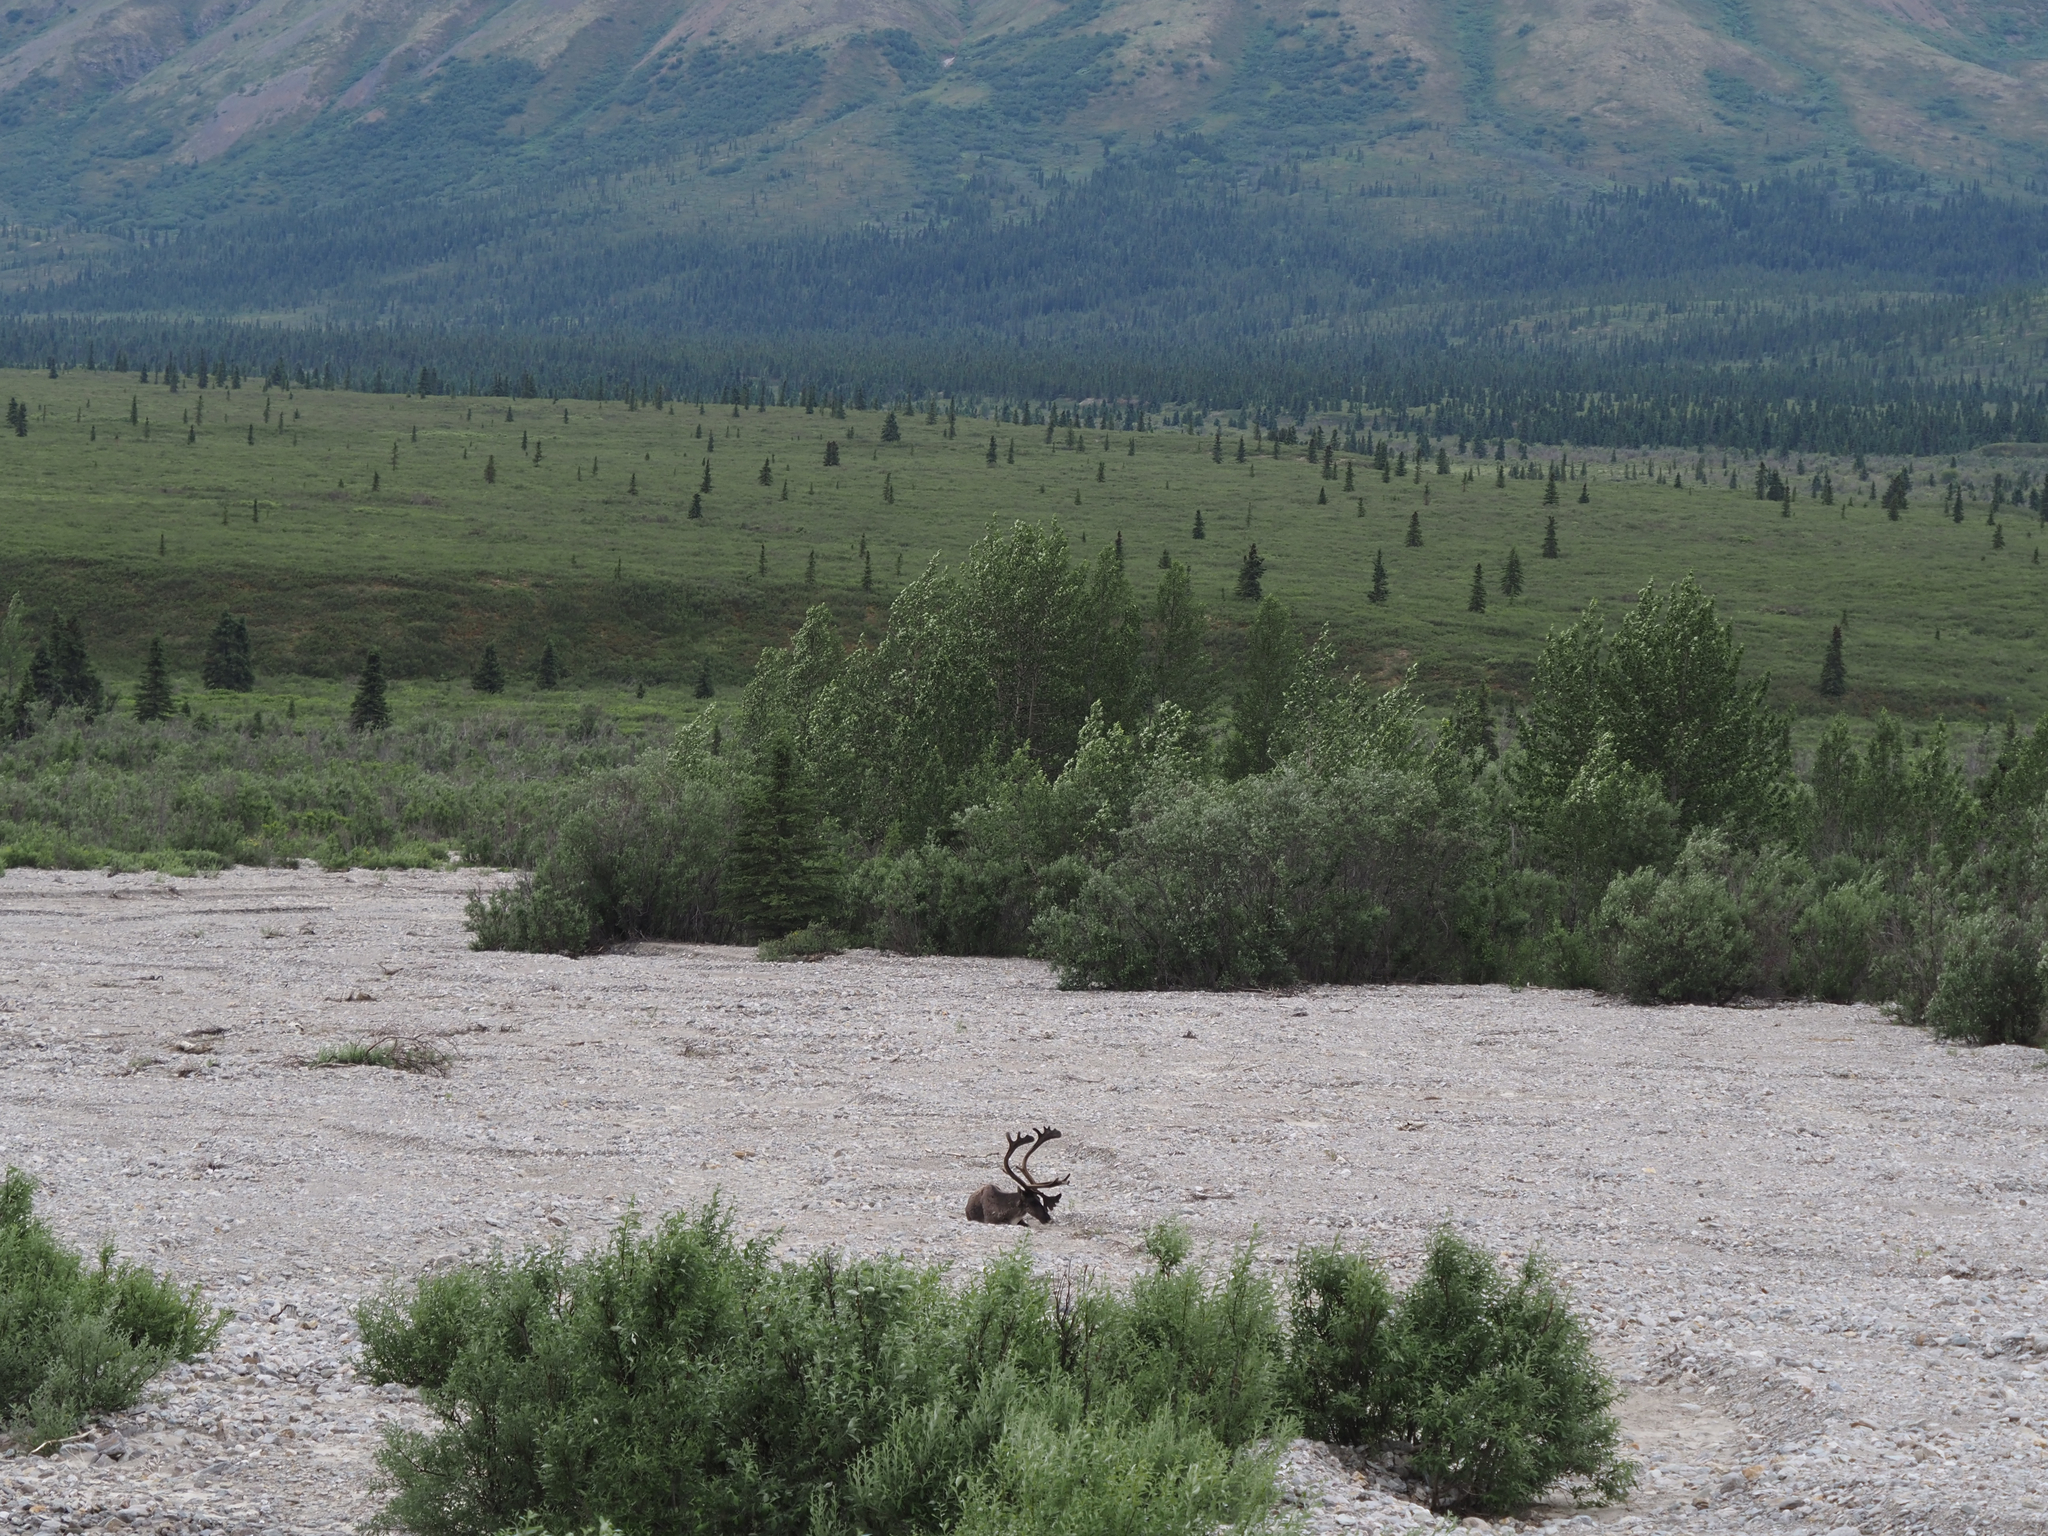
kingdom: Animalia
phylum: Chordata
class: Mammalia
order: Artiodactyla
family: Cervidae
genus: Rangifer
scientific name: Rangifer tarandus
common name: Reindeer
